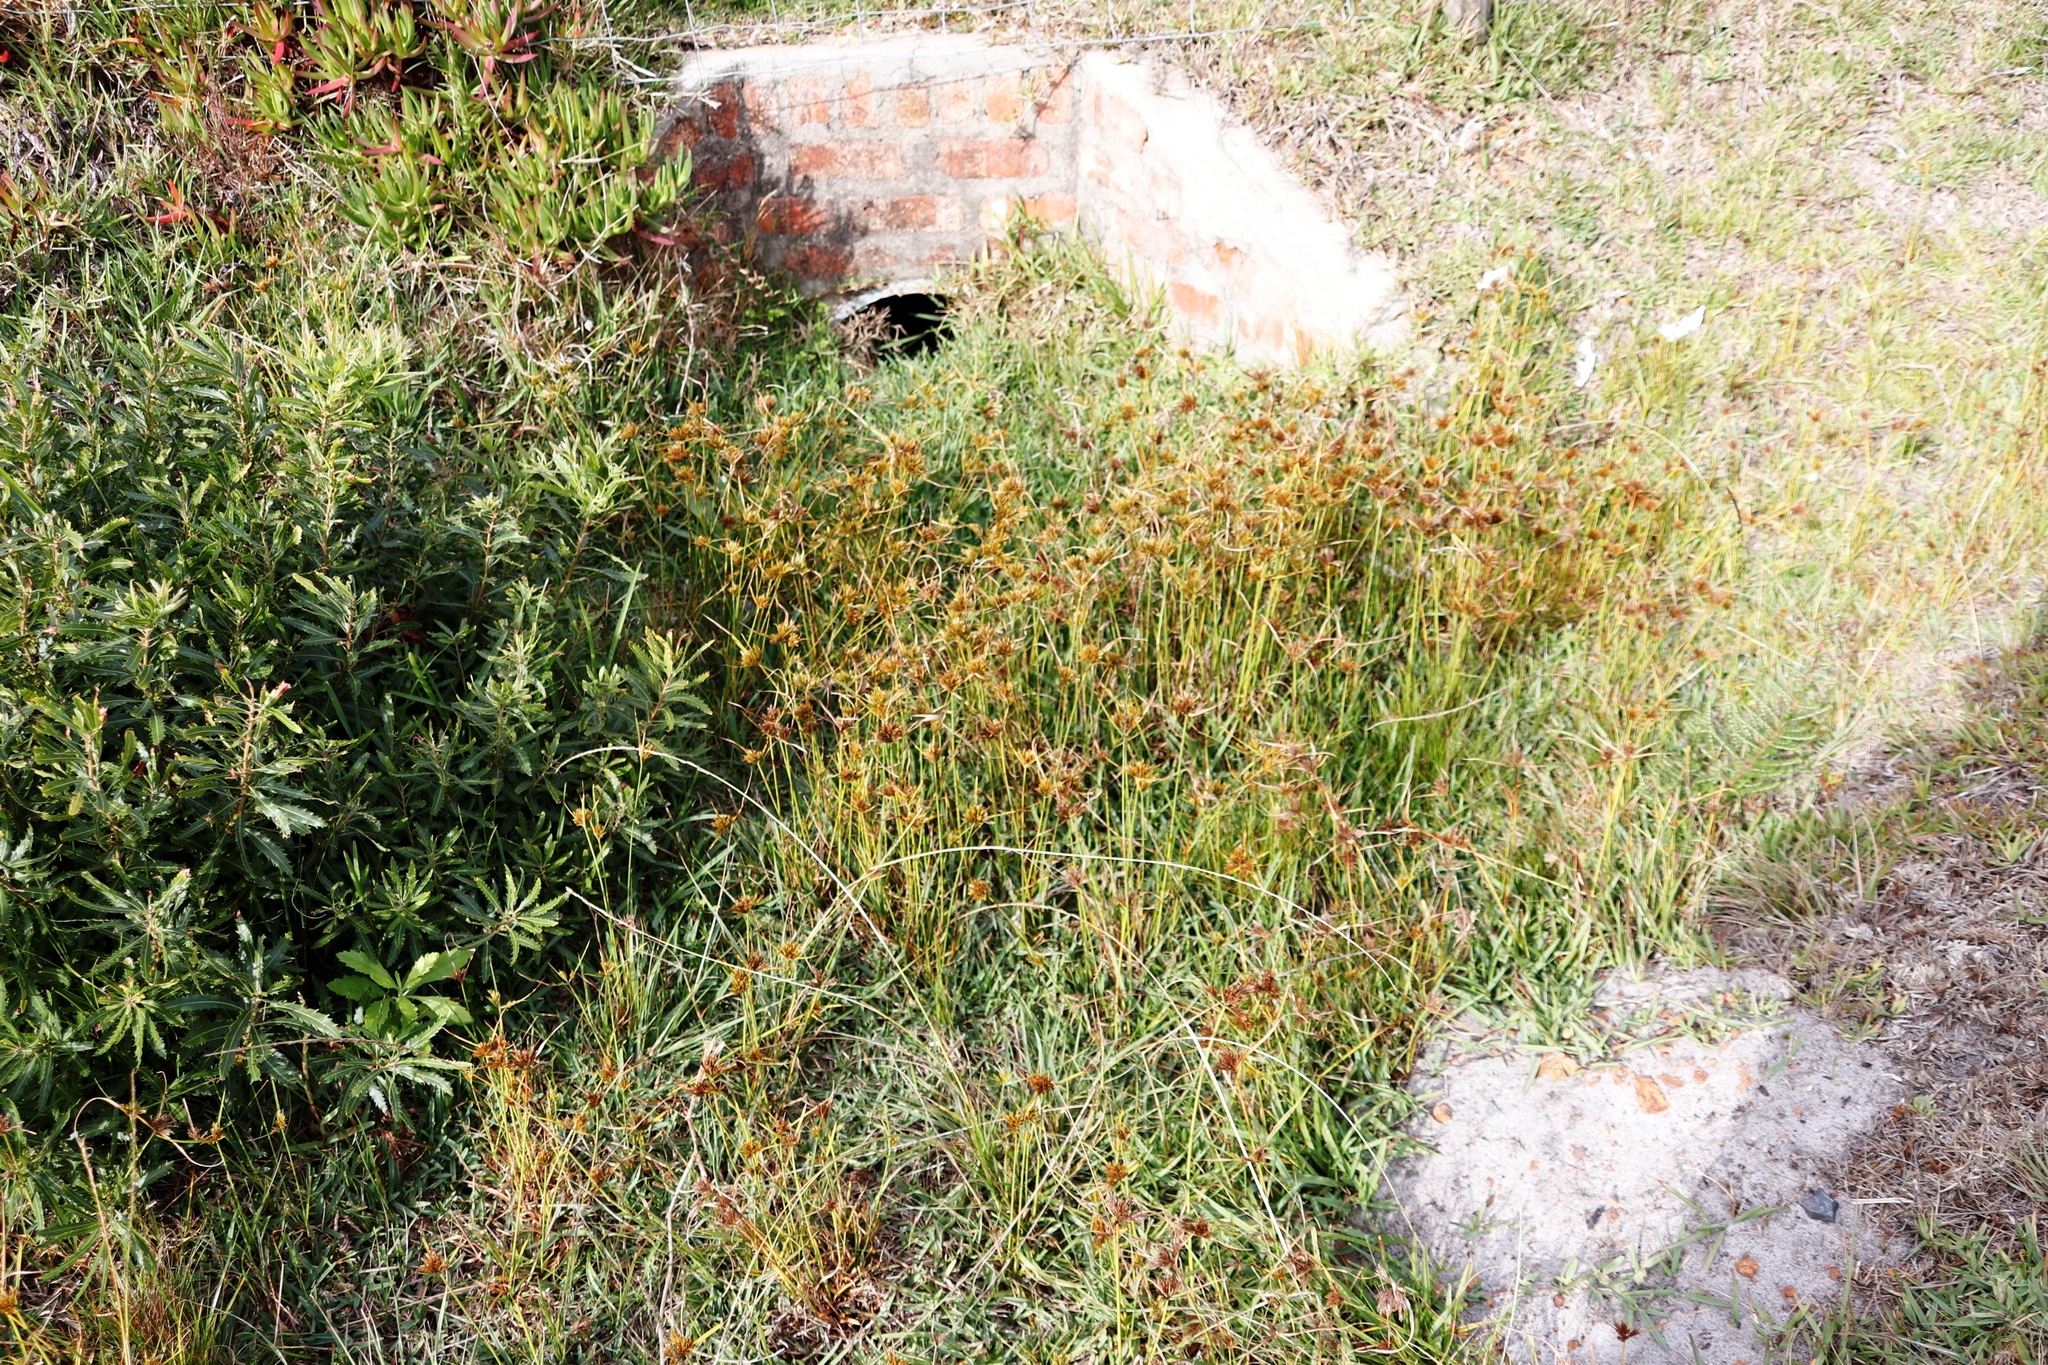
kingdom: Plantae
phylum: Tracheophyta
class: Liliopsida
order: Poales
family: Cyperaceae
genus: Cyperus
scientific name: Cyperus polystachyos
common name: Bunchy flat sedge
